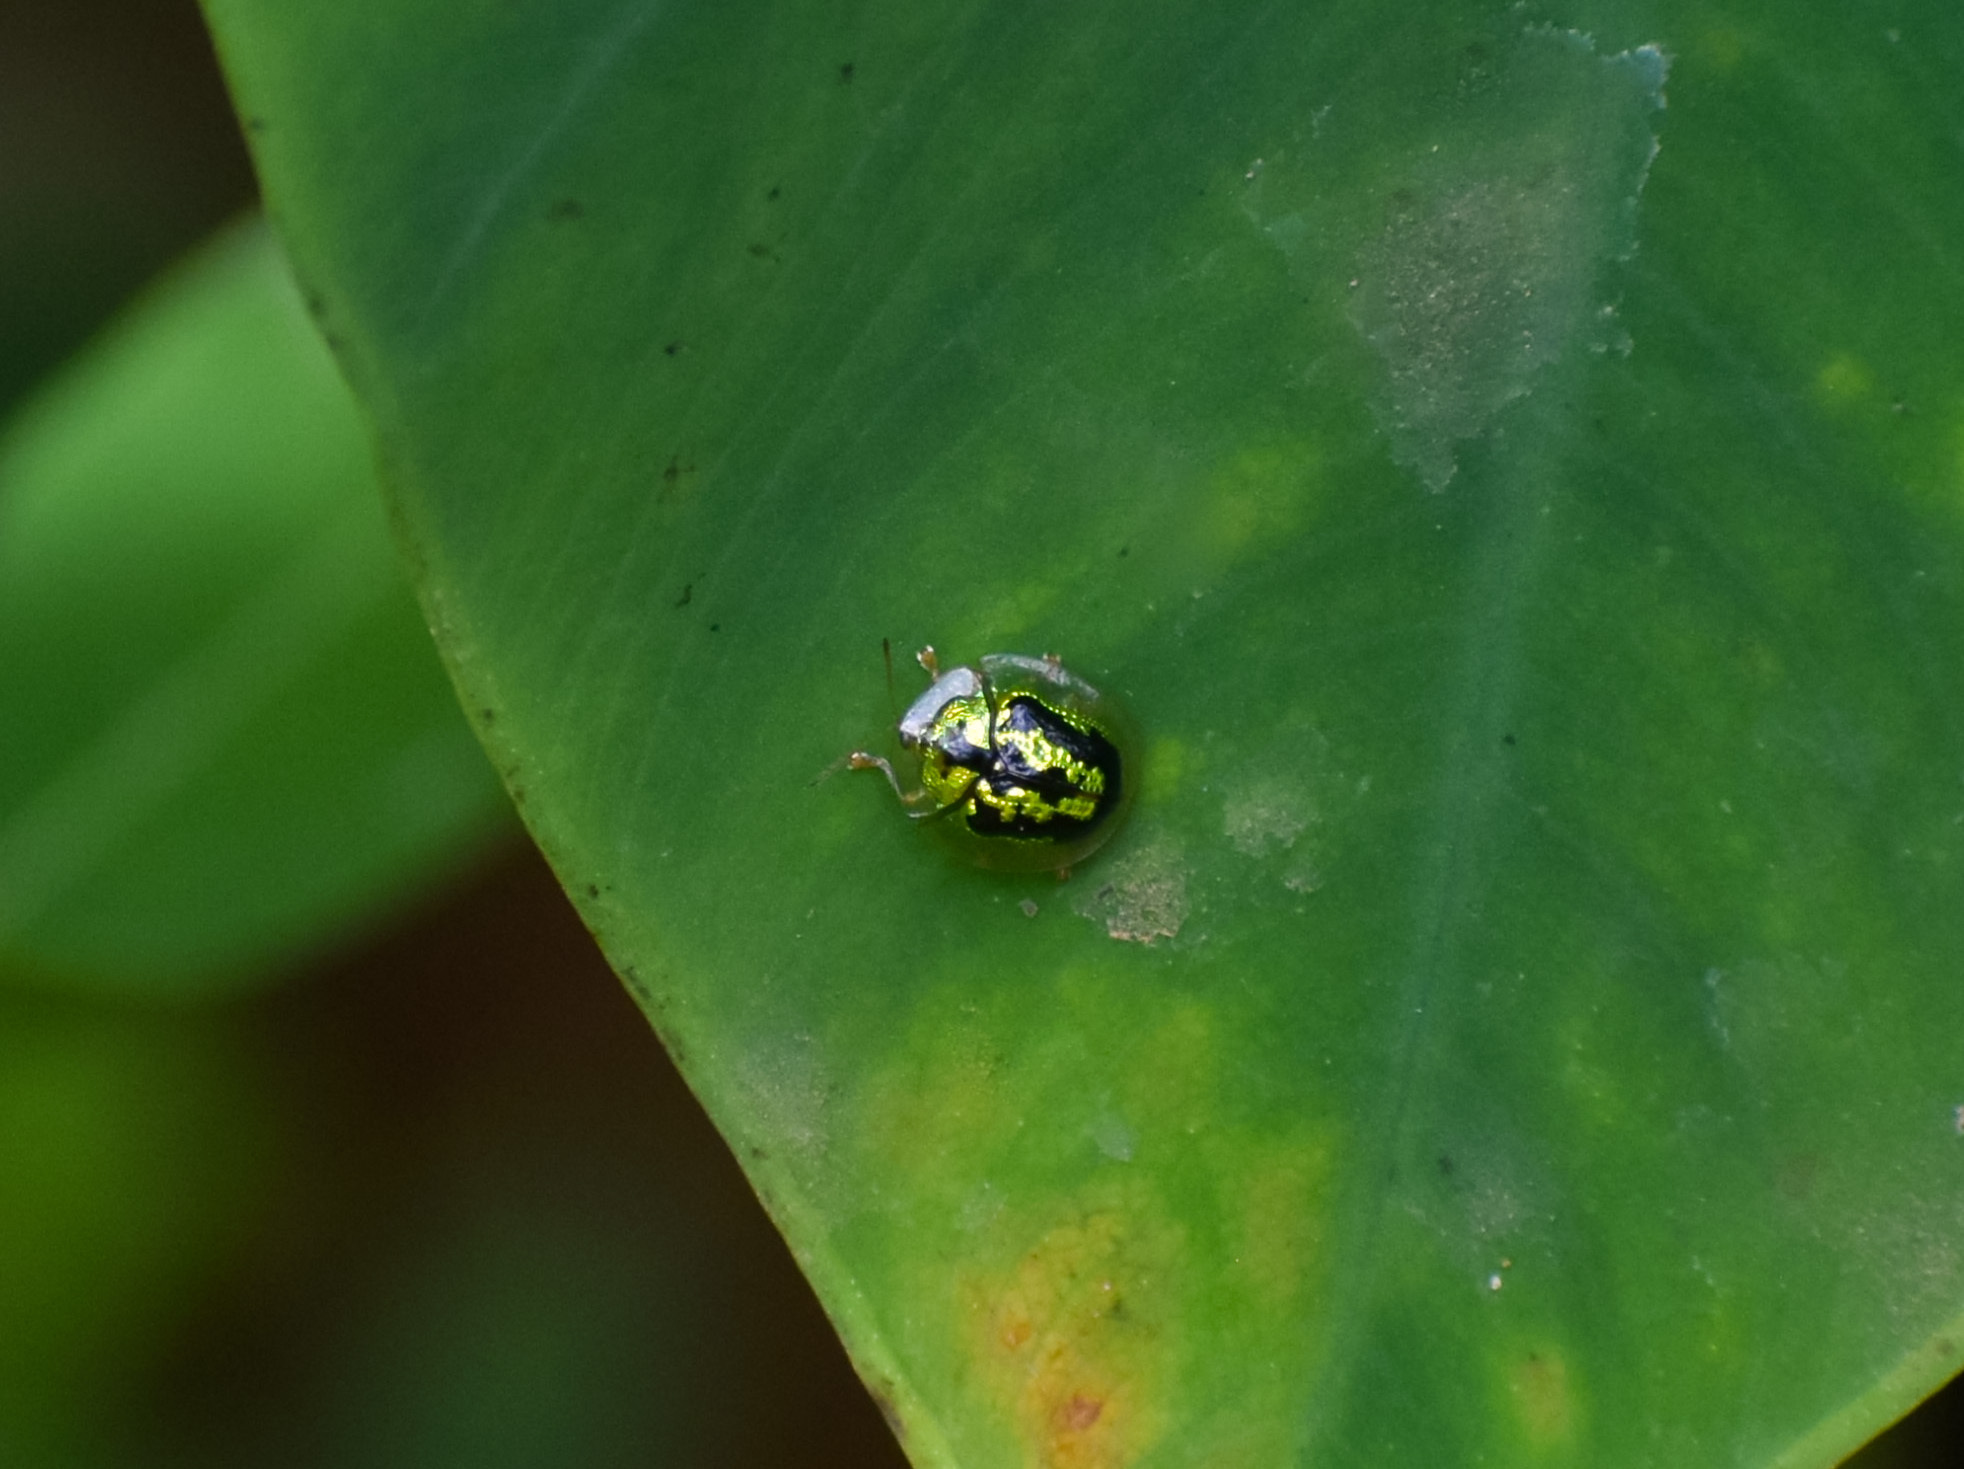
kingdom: Animalia
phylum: Arthropoda
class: Insecta
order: Coleoptera
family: Chrysomelidae
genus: Cassida
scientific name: Cassida circumdata
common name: Tortoise beetle
